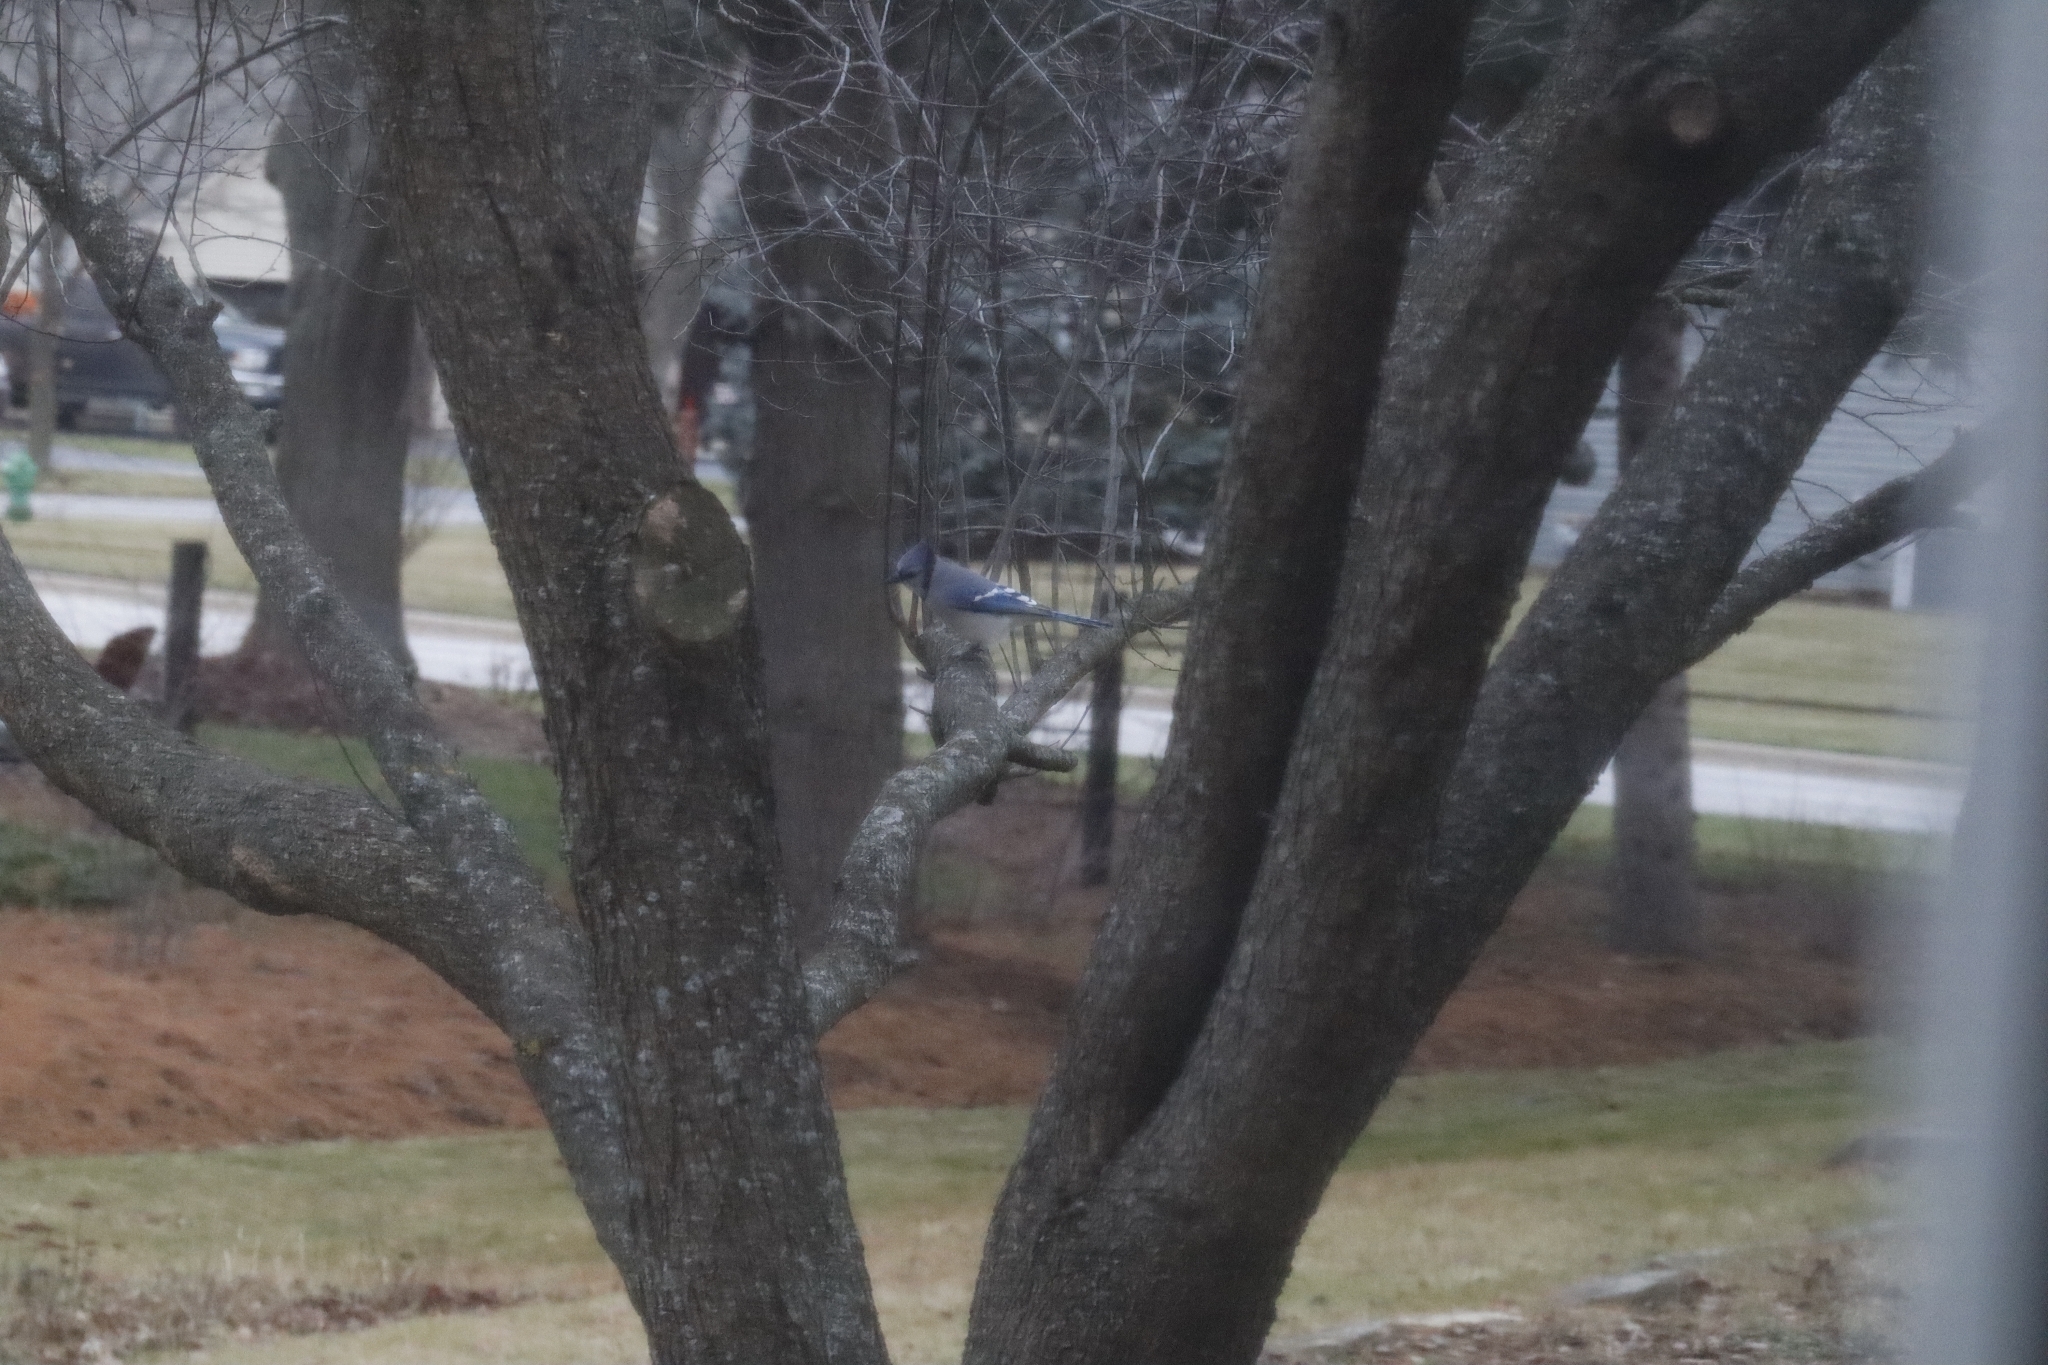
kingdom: Animalia
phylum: Chordata
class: Aves
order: Passeriformes
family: Corvidae
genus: Cyanocitta
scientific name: Cyanocitta cristata
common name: Blue jay
